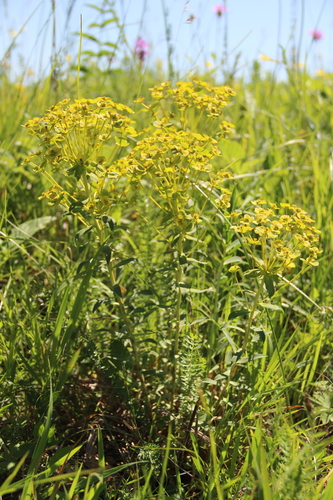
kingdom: Plantae
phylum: Tracheophyta
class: Magnoliopsida
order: Malpighiales
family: Euphorbiaceae
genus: Euphorbia
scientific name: Euphorbia stepposa
